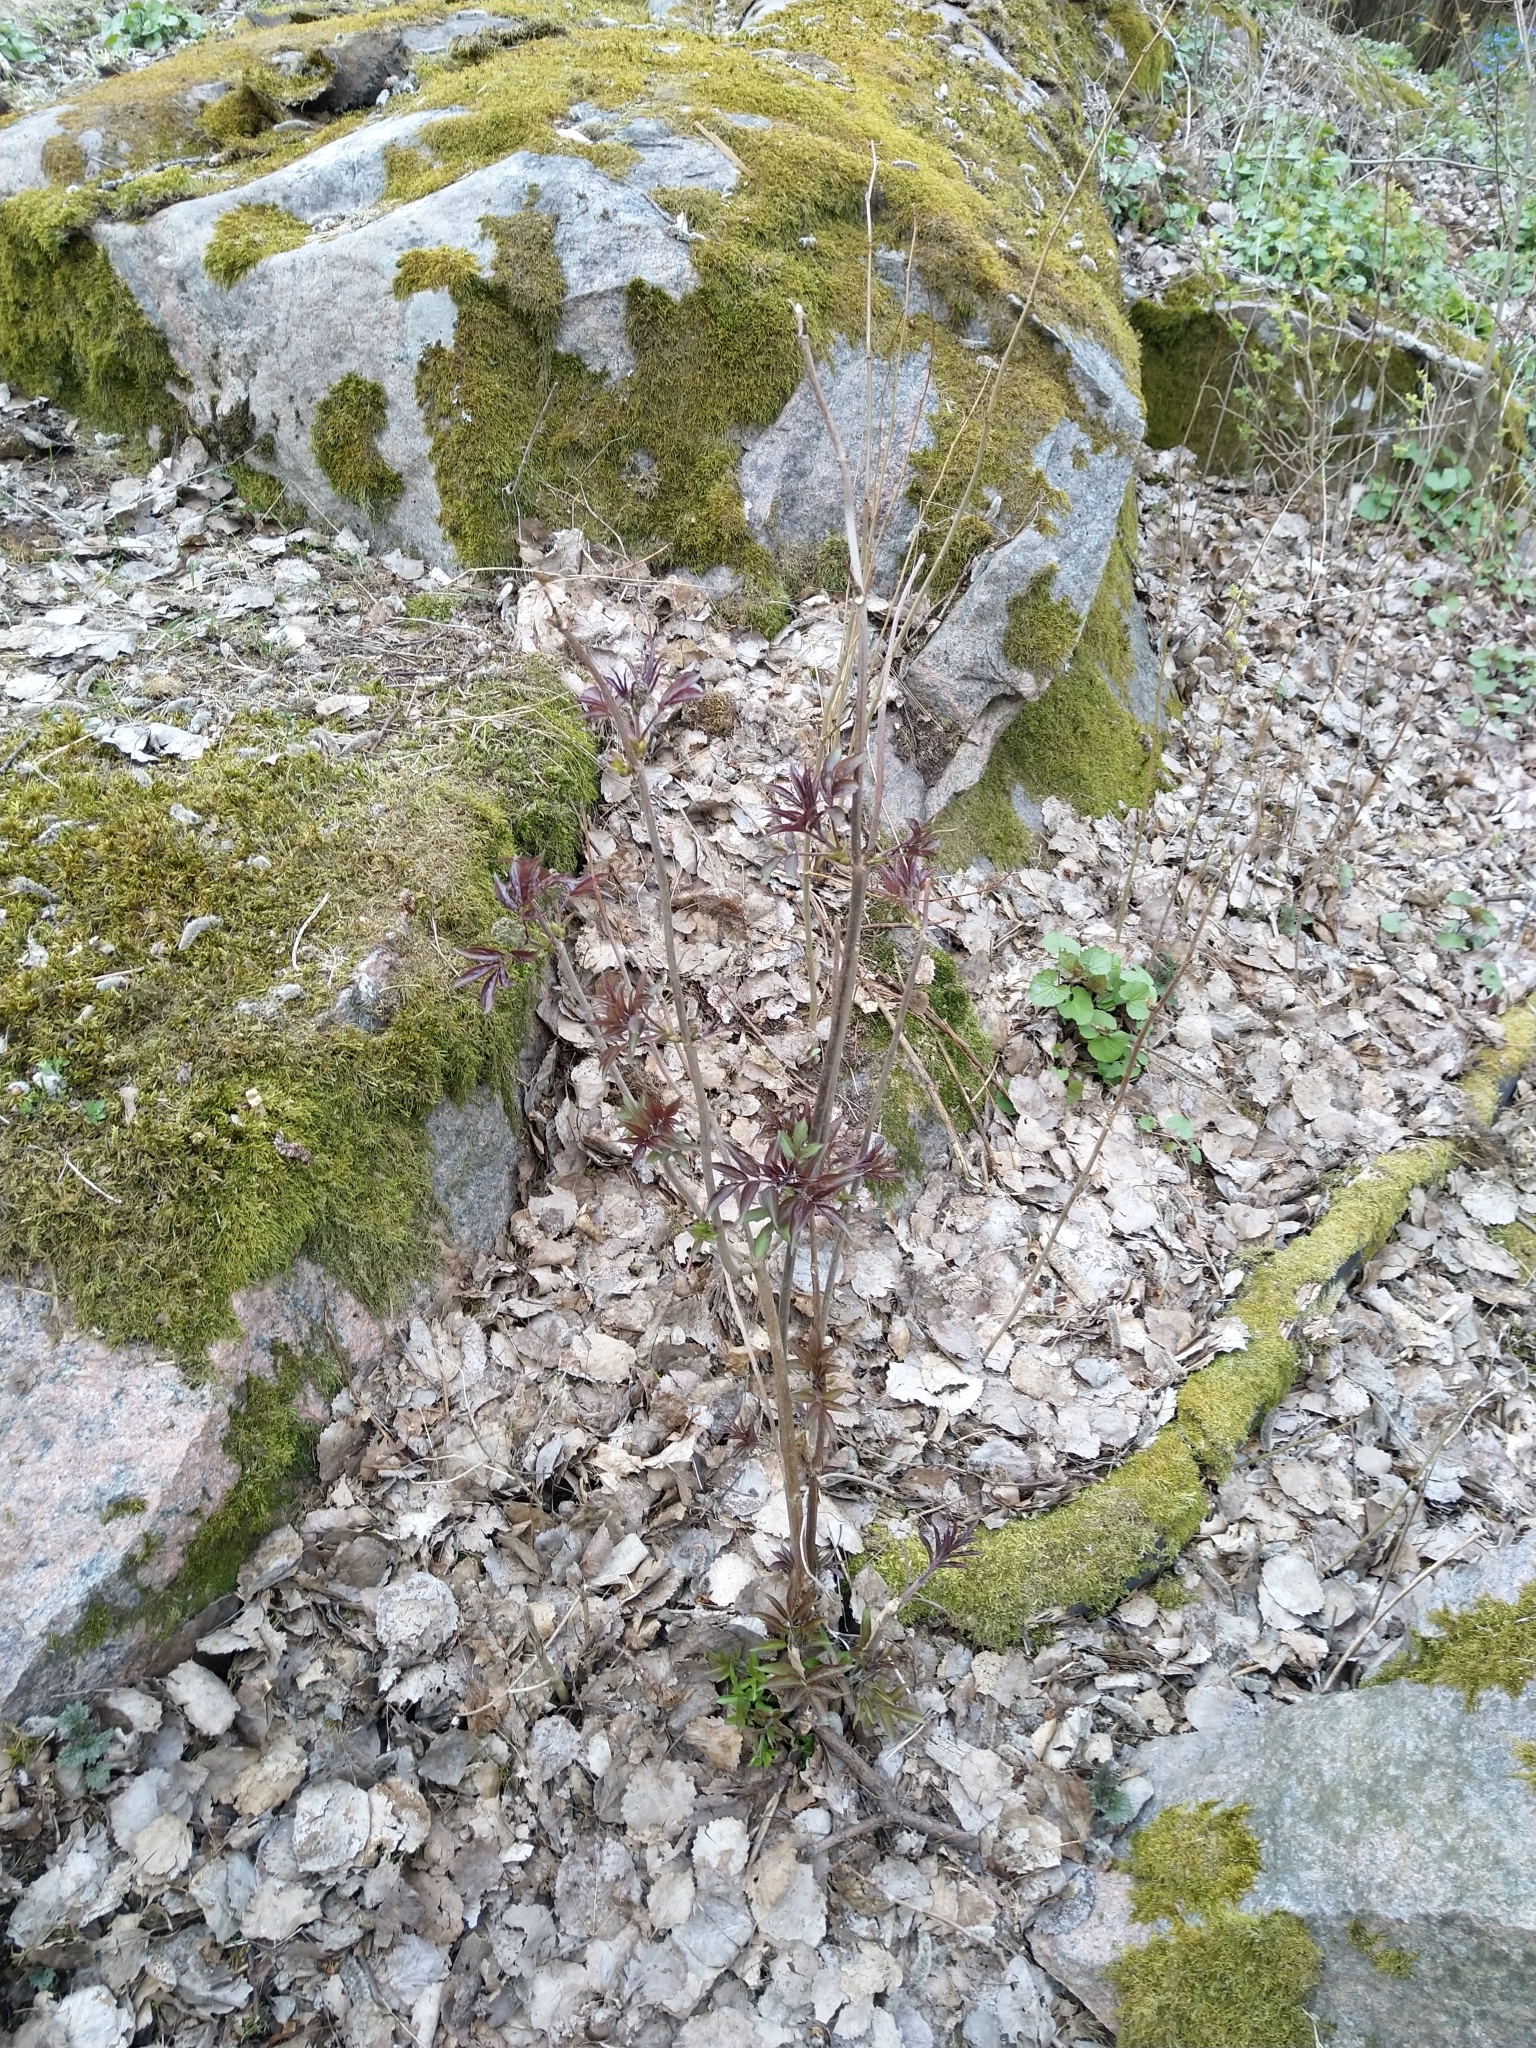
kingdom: Plantae
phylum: Tracheophyta
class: Magnoliopsida
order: Dipsacales
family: Viburnaceae
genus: Sambucus
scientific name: Sambucus racemosa
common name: Red-berried elder
